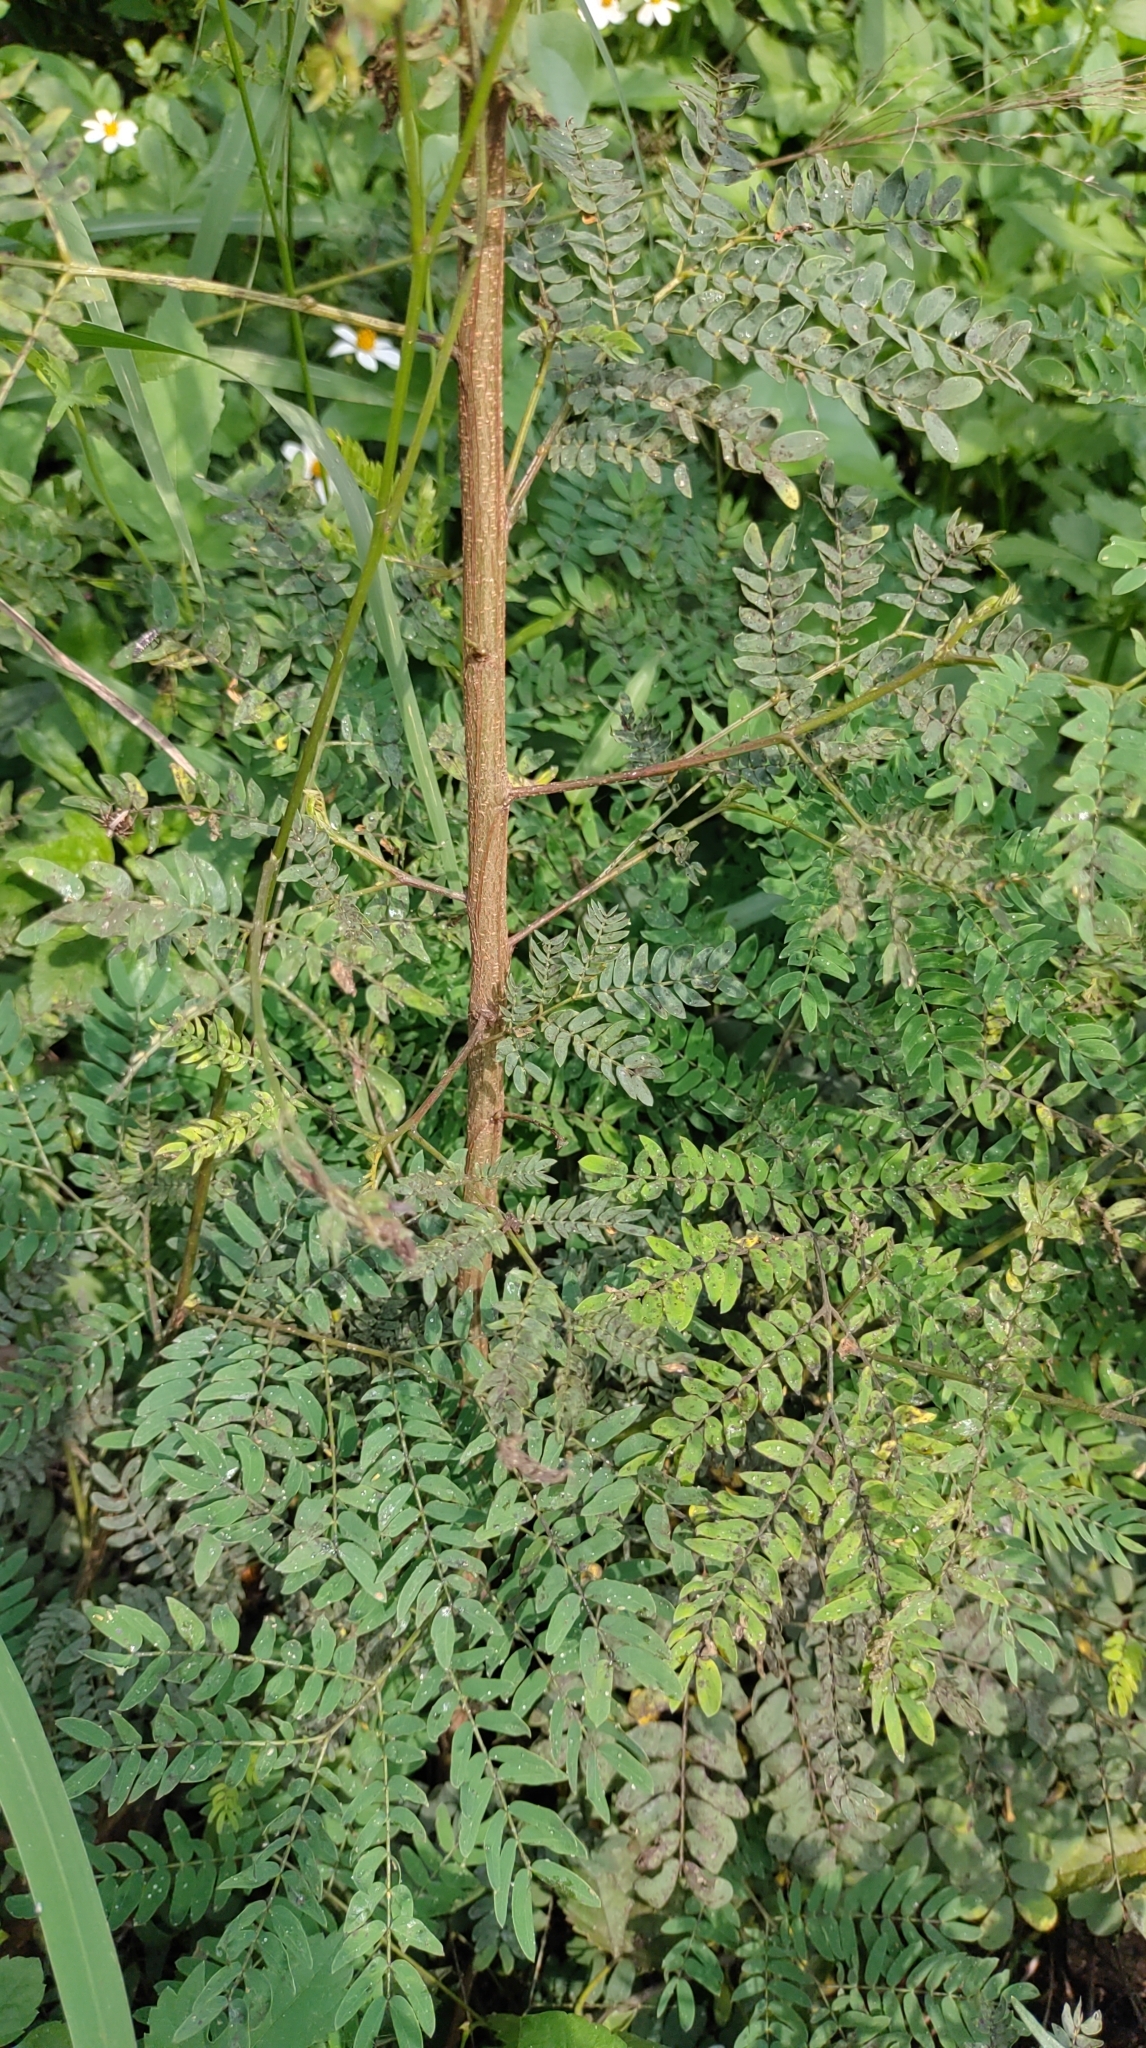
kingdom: Plantae
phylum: Tracheophyta
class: Magnoliopsida
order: Fabales
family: Fabaceae
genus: Leucaena
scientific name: Leucaena leucocephala
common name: White leadtree
